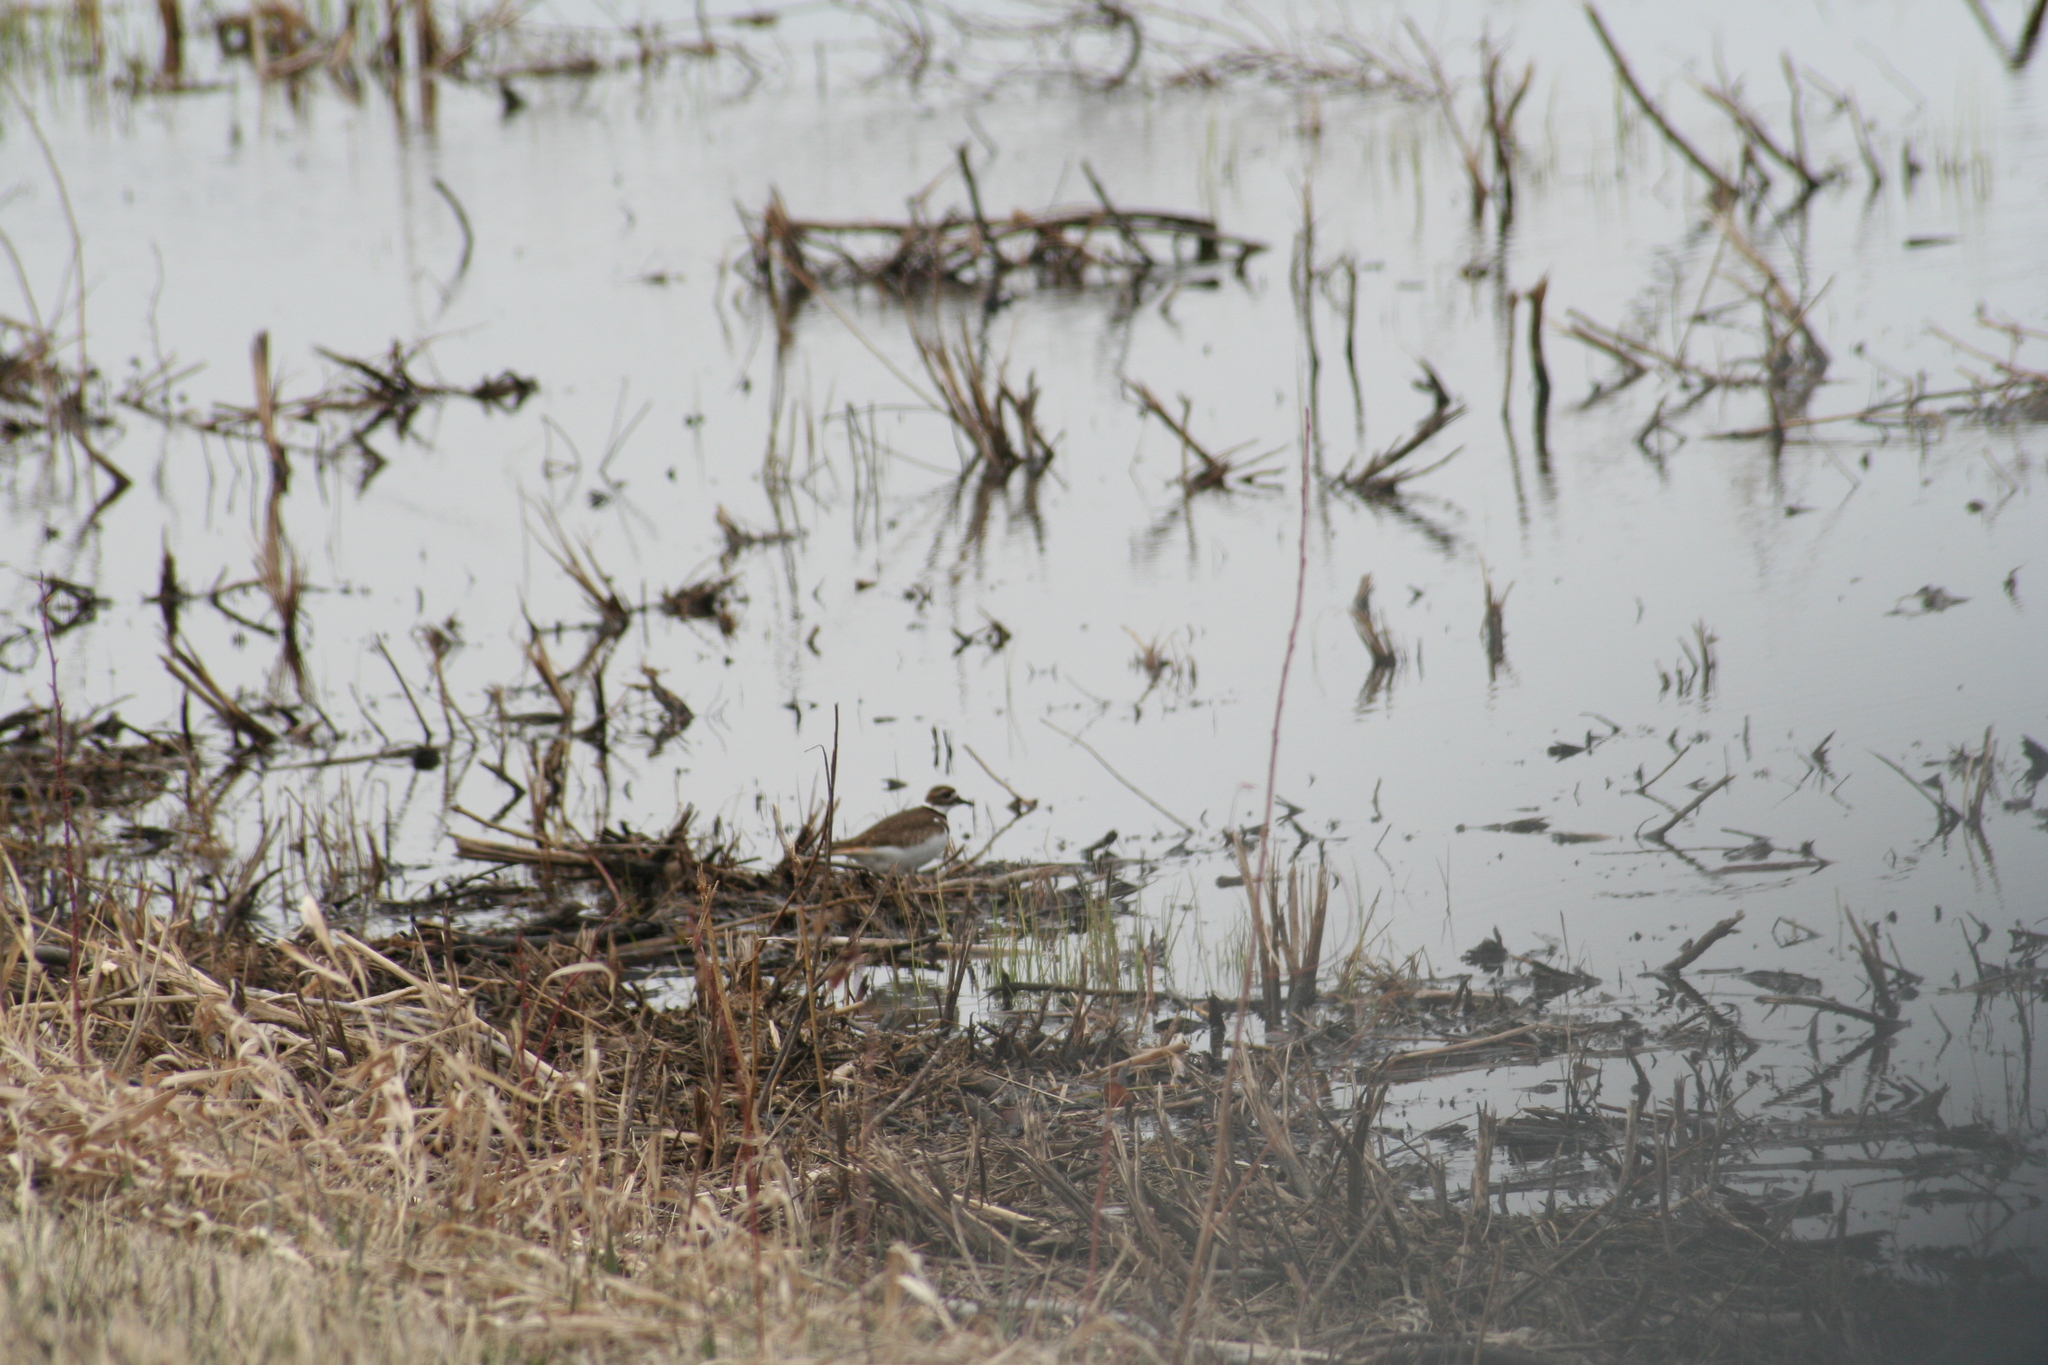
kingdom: Animalia
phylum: Chordata
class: Aves
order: Charadriiformes
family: Charadriidae
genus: Charadrius
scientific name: Charadrius vociferus
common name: Killdeer
